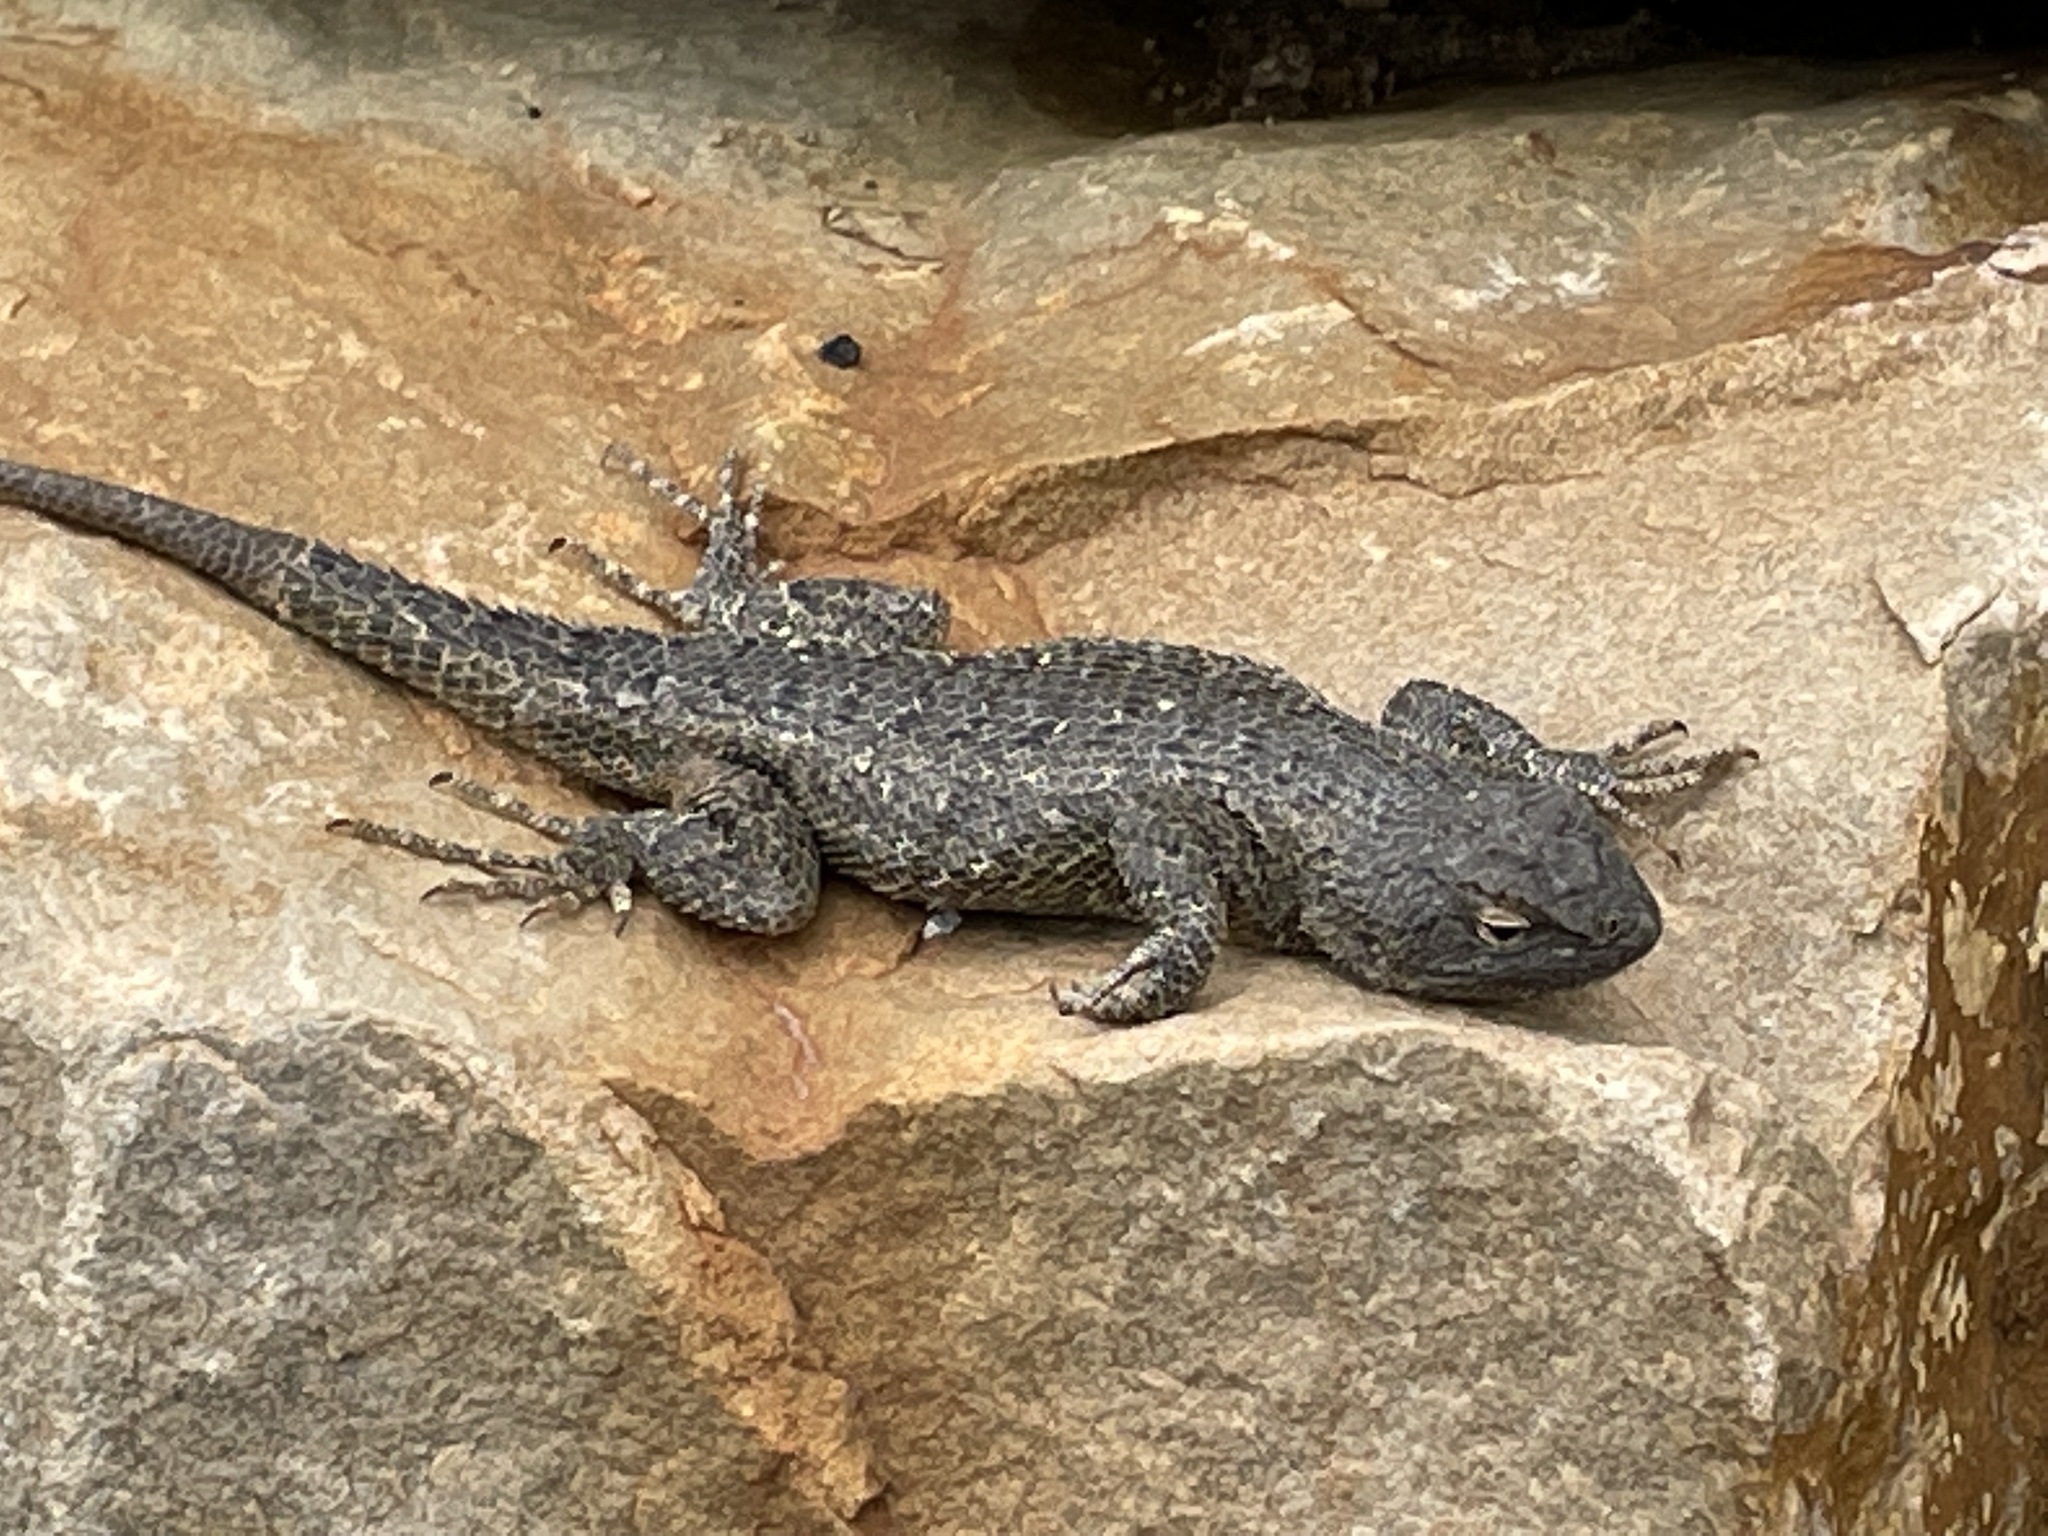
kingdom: Animalia
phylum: Chordata
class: Squamata
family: Phrynosomatidae
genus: Sceloporus
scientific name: Sceloporus tristichus
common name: Plateau fence lizard
